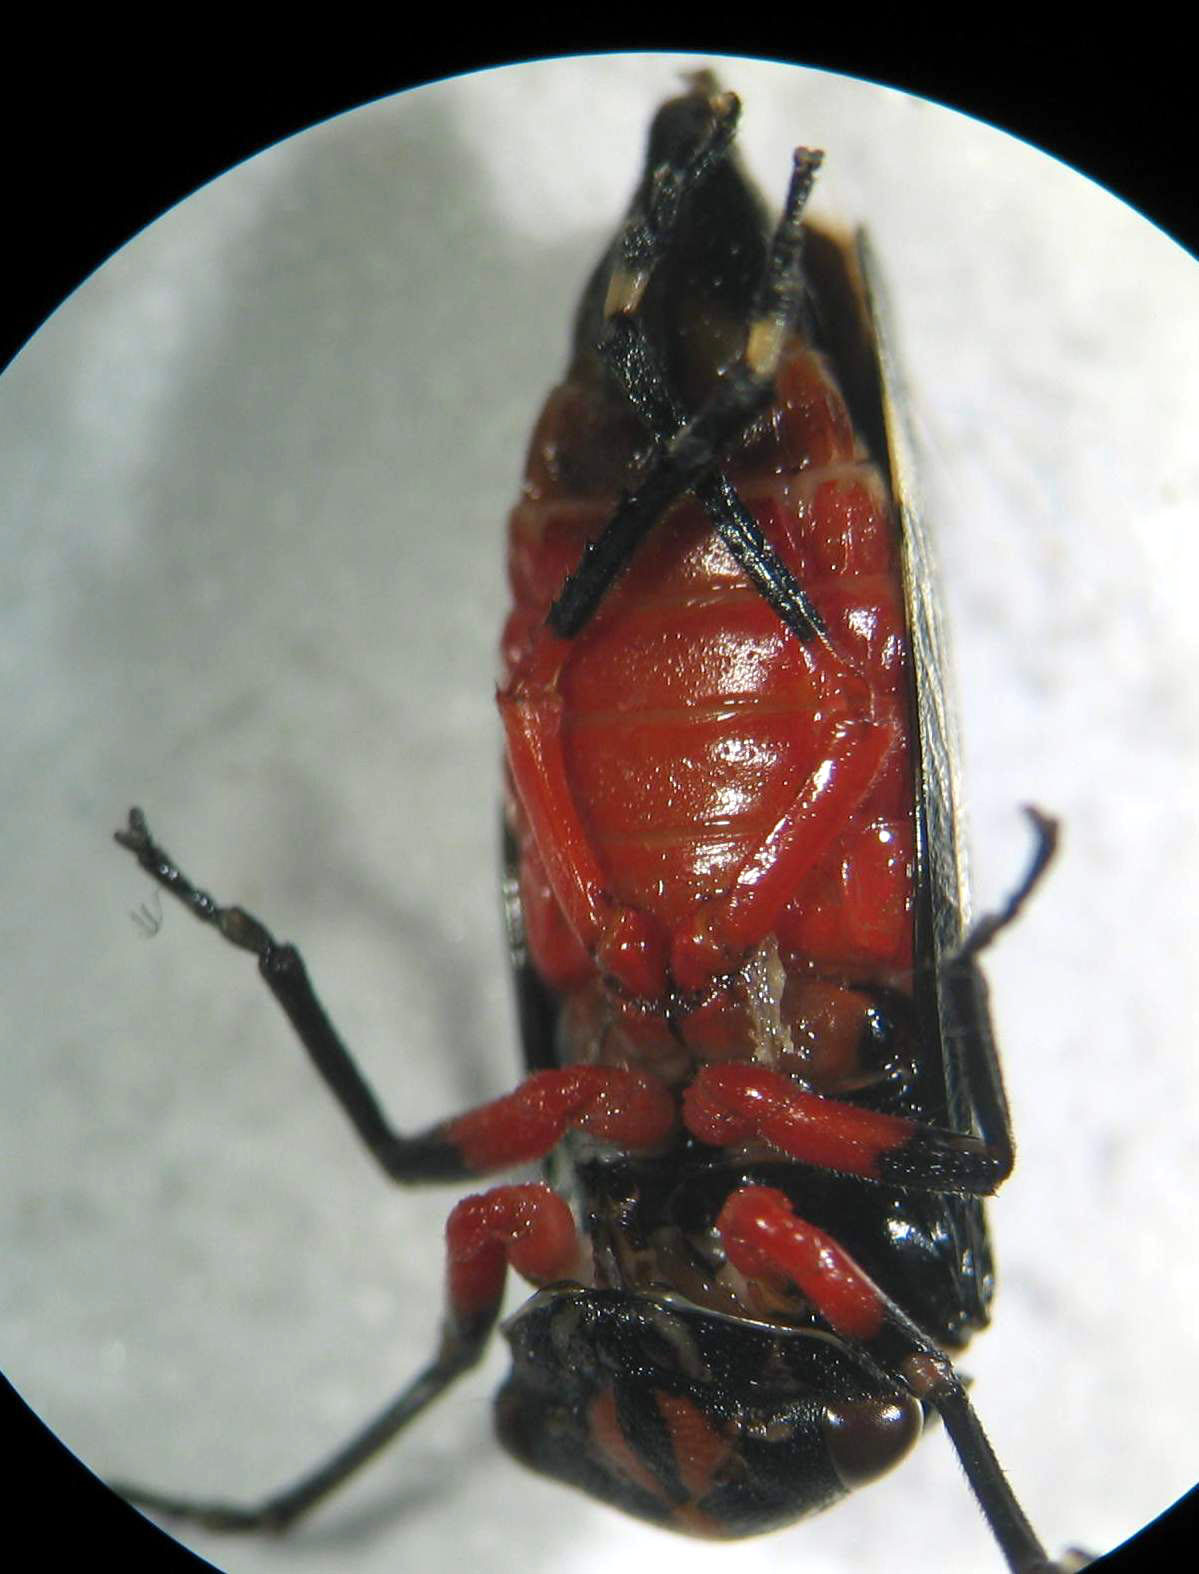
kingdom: Animalia
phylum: Arthropoda
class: Insecta
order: Hemiptera
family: Cicadellidae
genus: Eurymeloides
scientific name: Eurymeloides lineata
